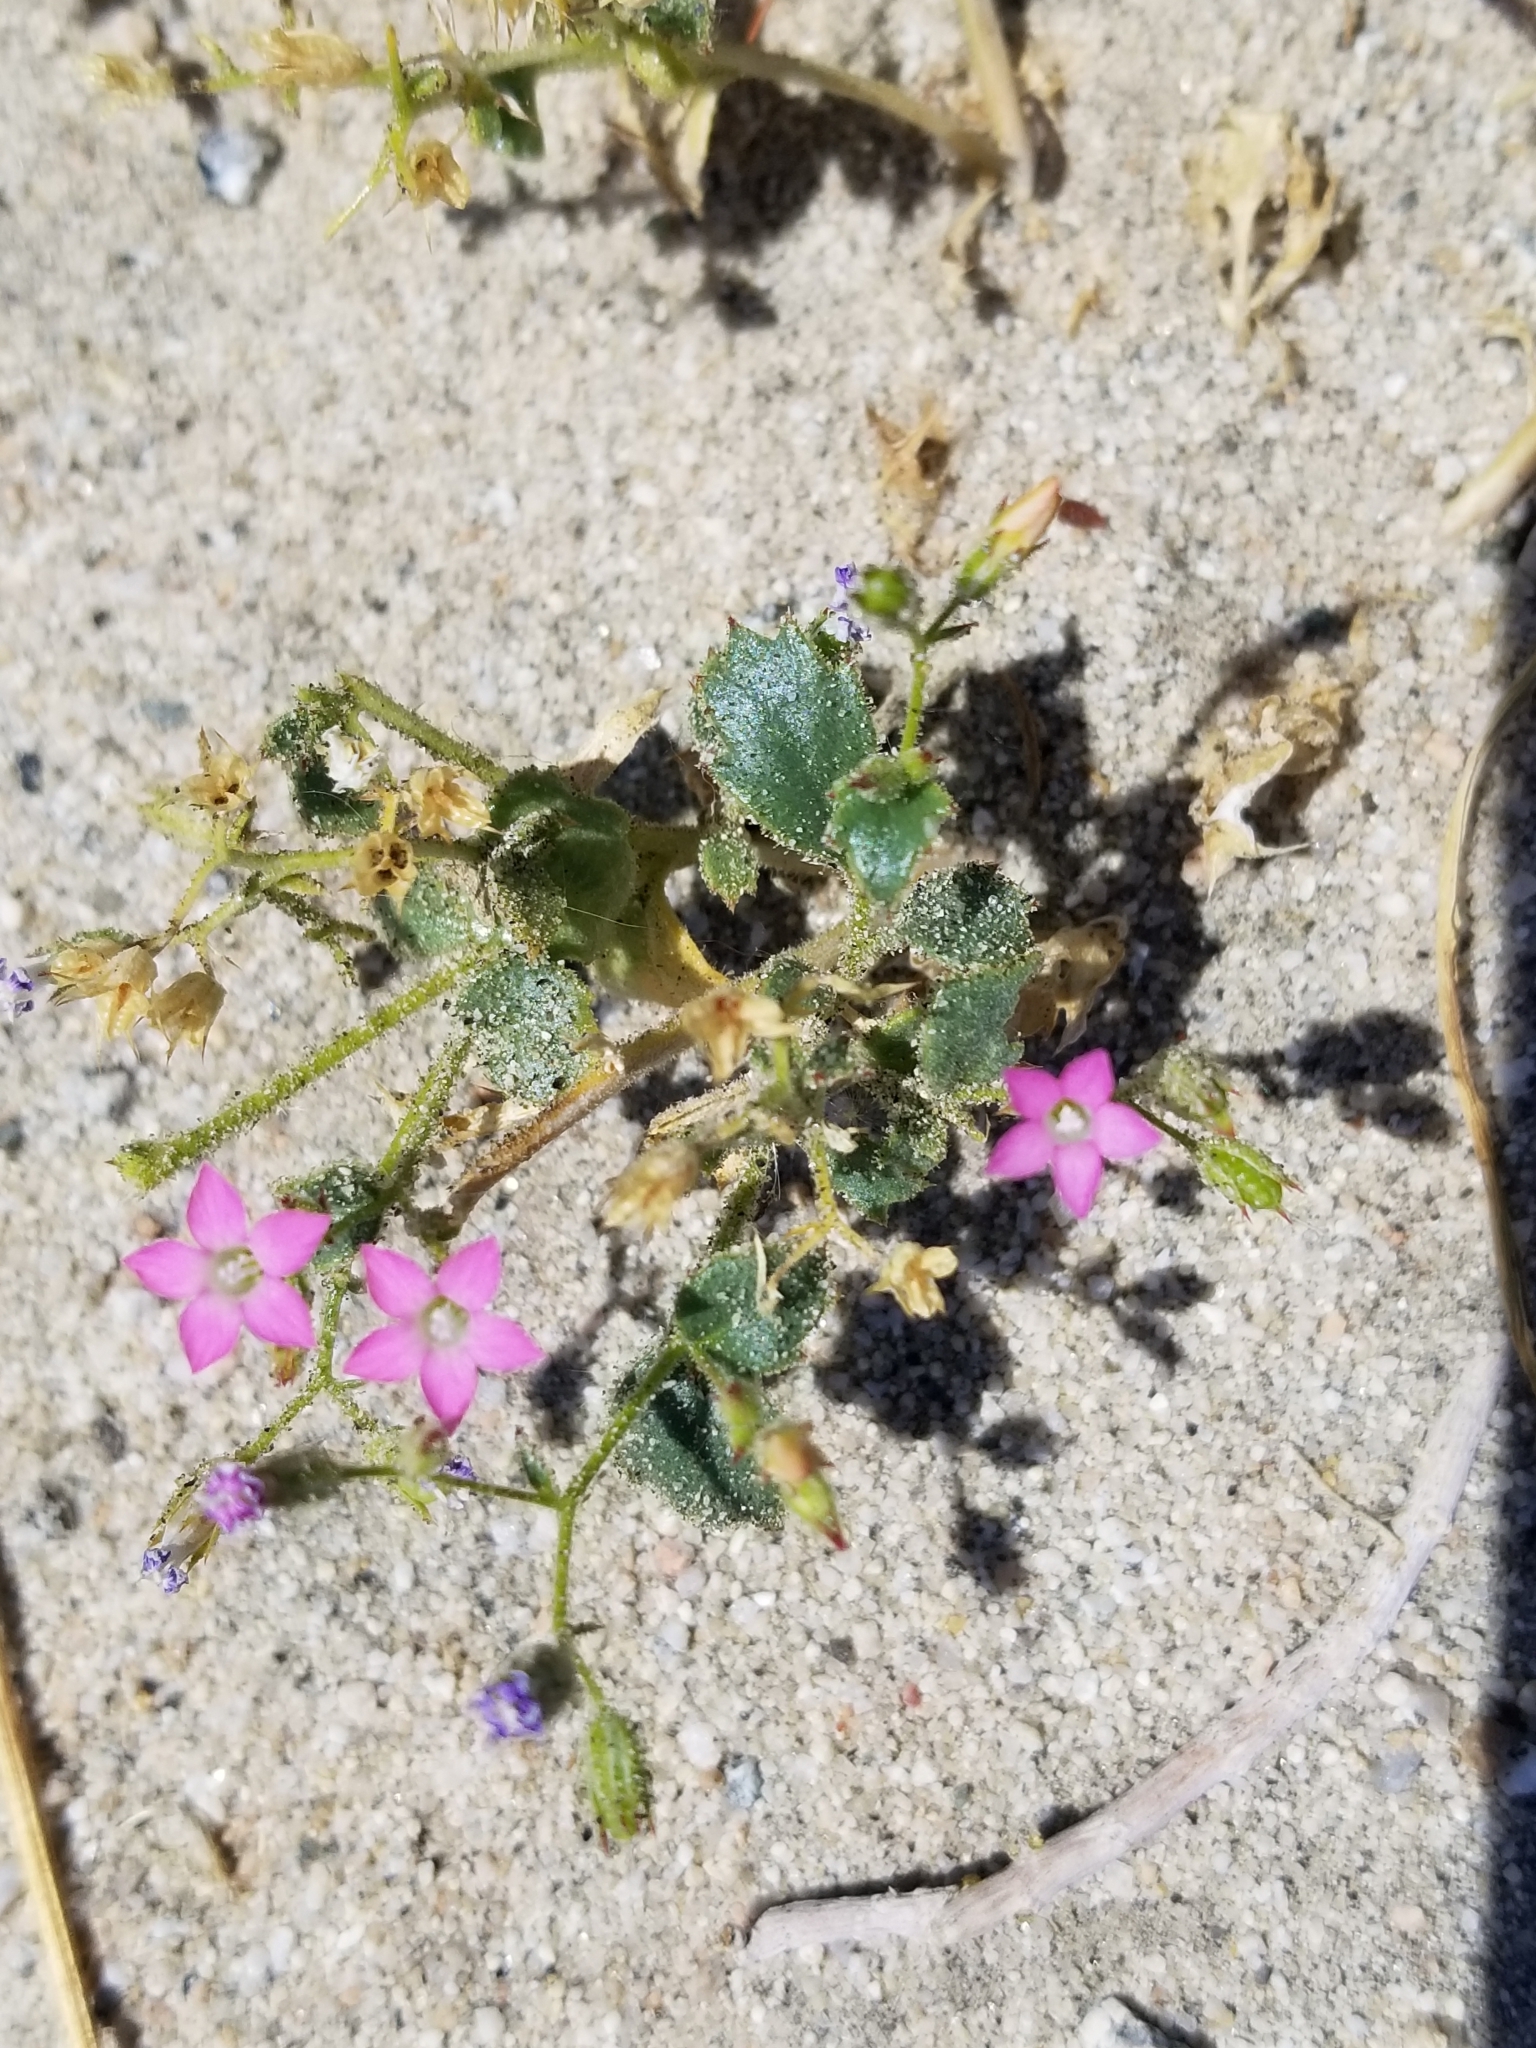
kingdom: Plantae
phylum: Tracheophyta
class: Magnoliopsida
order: Ericales
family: Polemoniaceae
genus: Aliciella
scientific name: Aliciella latifolia
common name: Broad-leaf gilia
